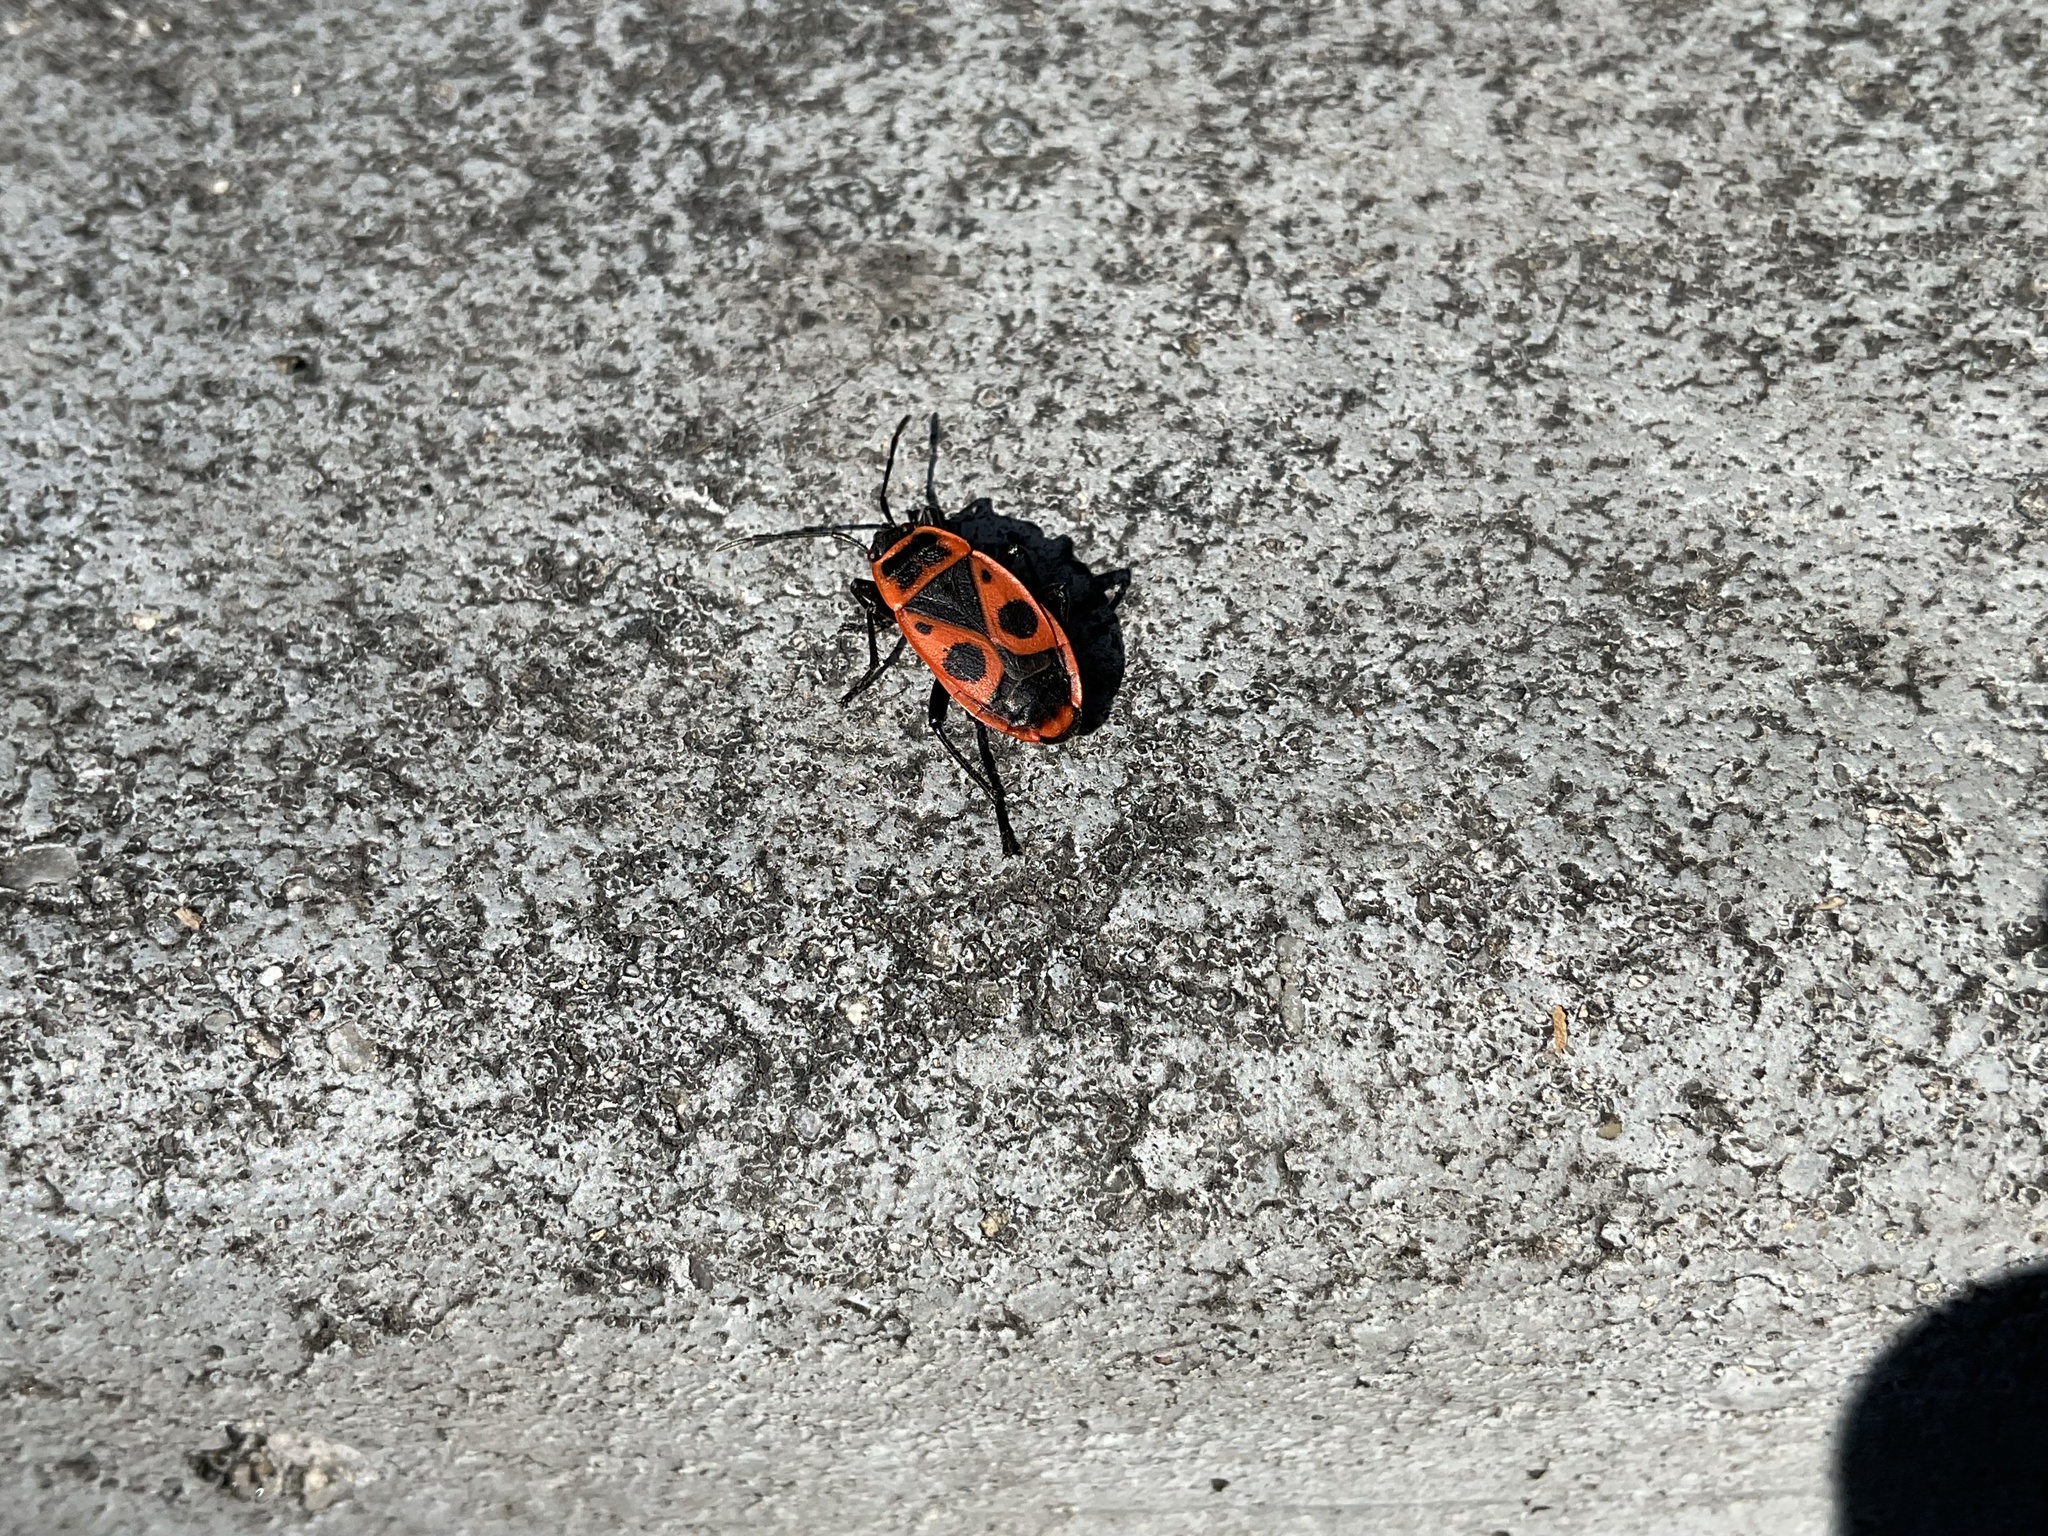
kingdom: Animalia
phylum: Arthropoda
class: Insecta
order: Hemiptera
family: Pyrrhocoridae
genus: Pyrrhocoris
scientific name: Pyrrhocoris apterus
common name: Firebug
